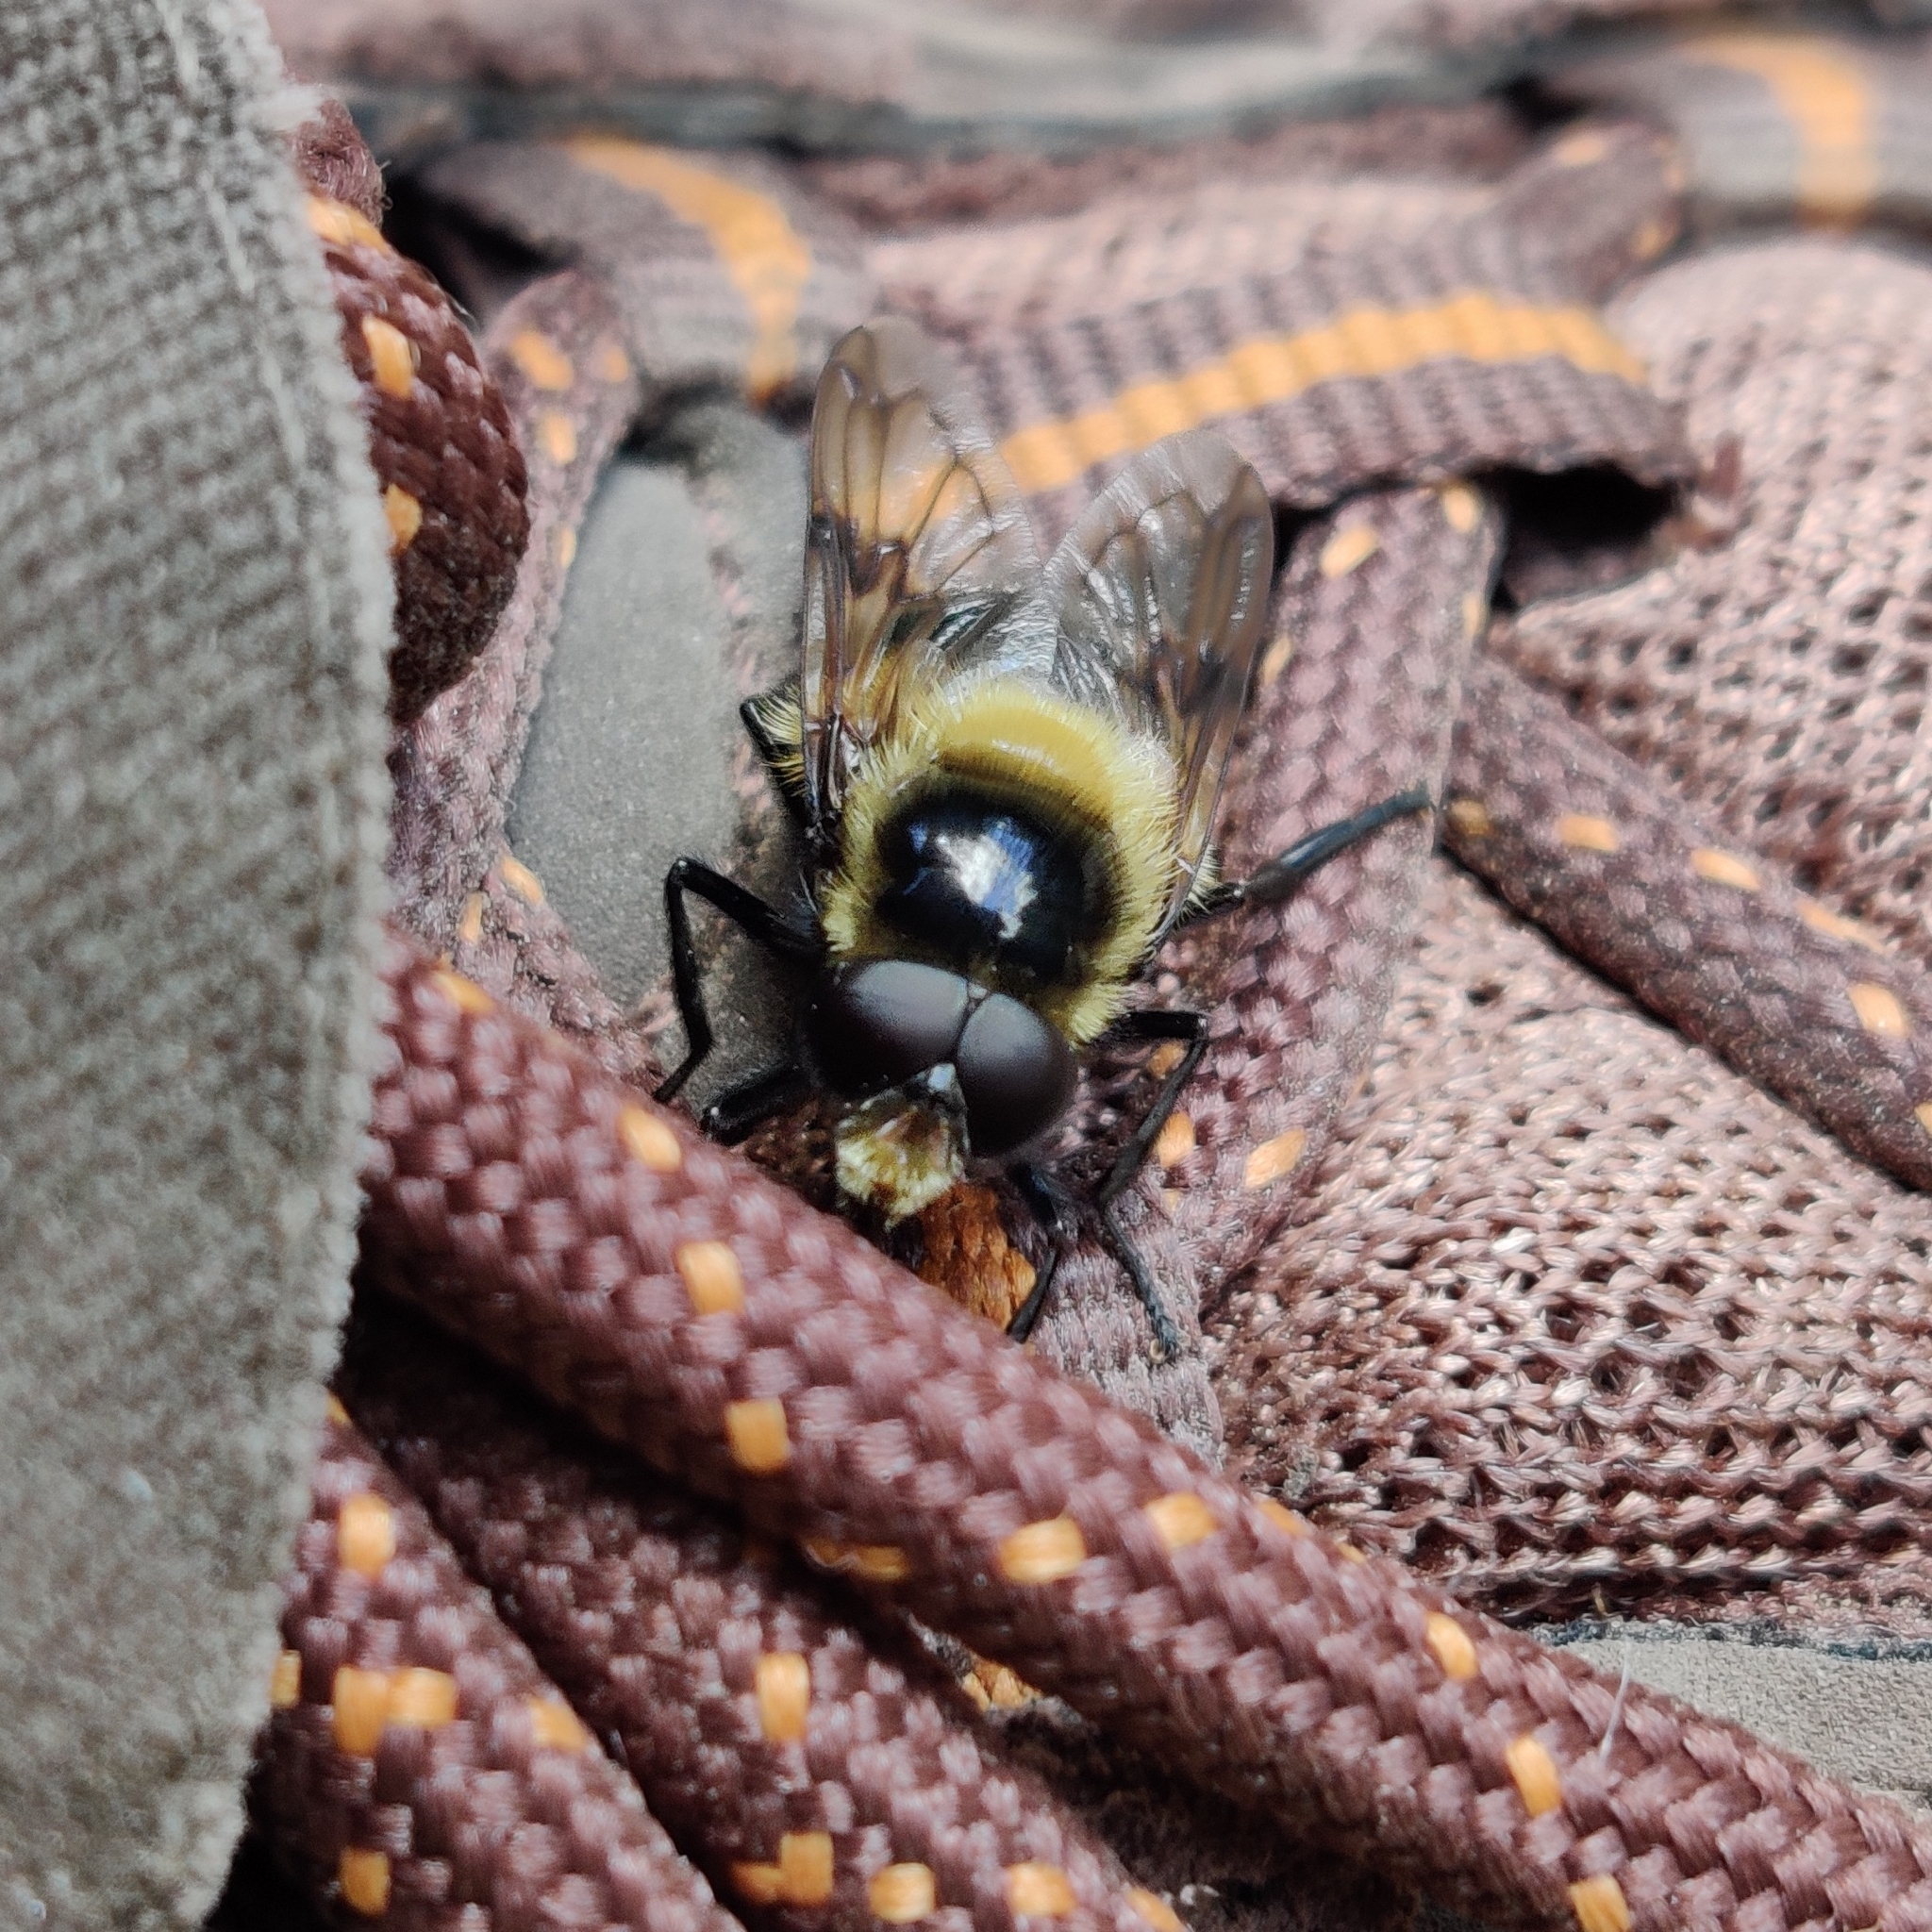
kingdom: Animalia
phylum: Arthropoda
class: Insecta
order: Diptera
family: Syrphidae
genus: Volucella
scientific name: Volucella bombylans
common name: Bumble bee hover fly
